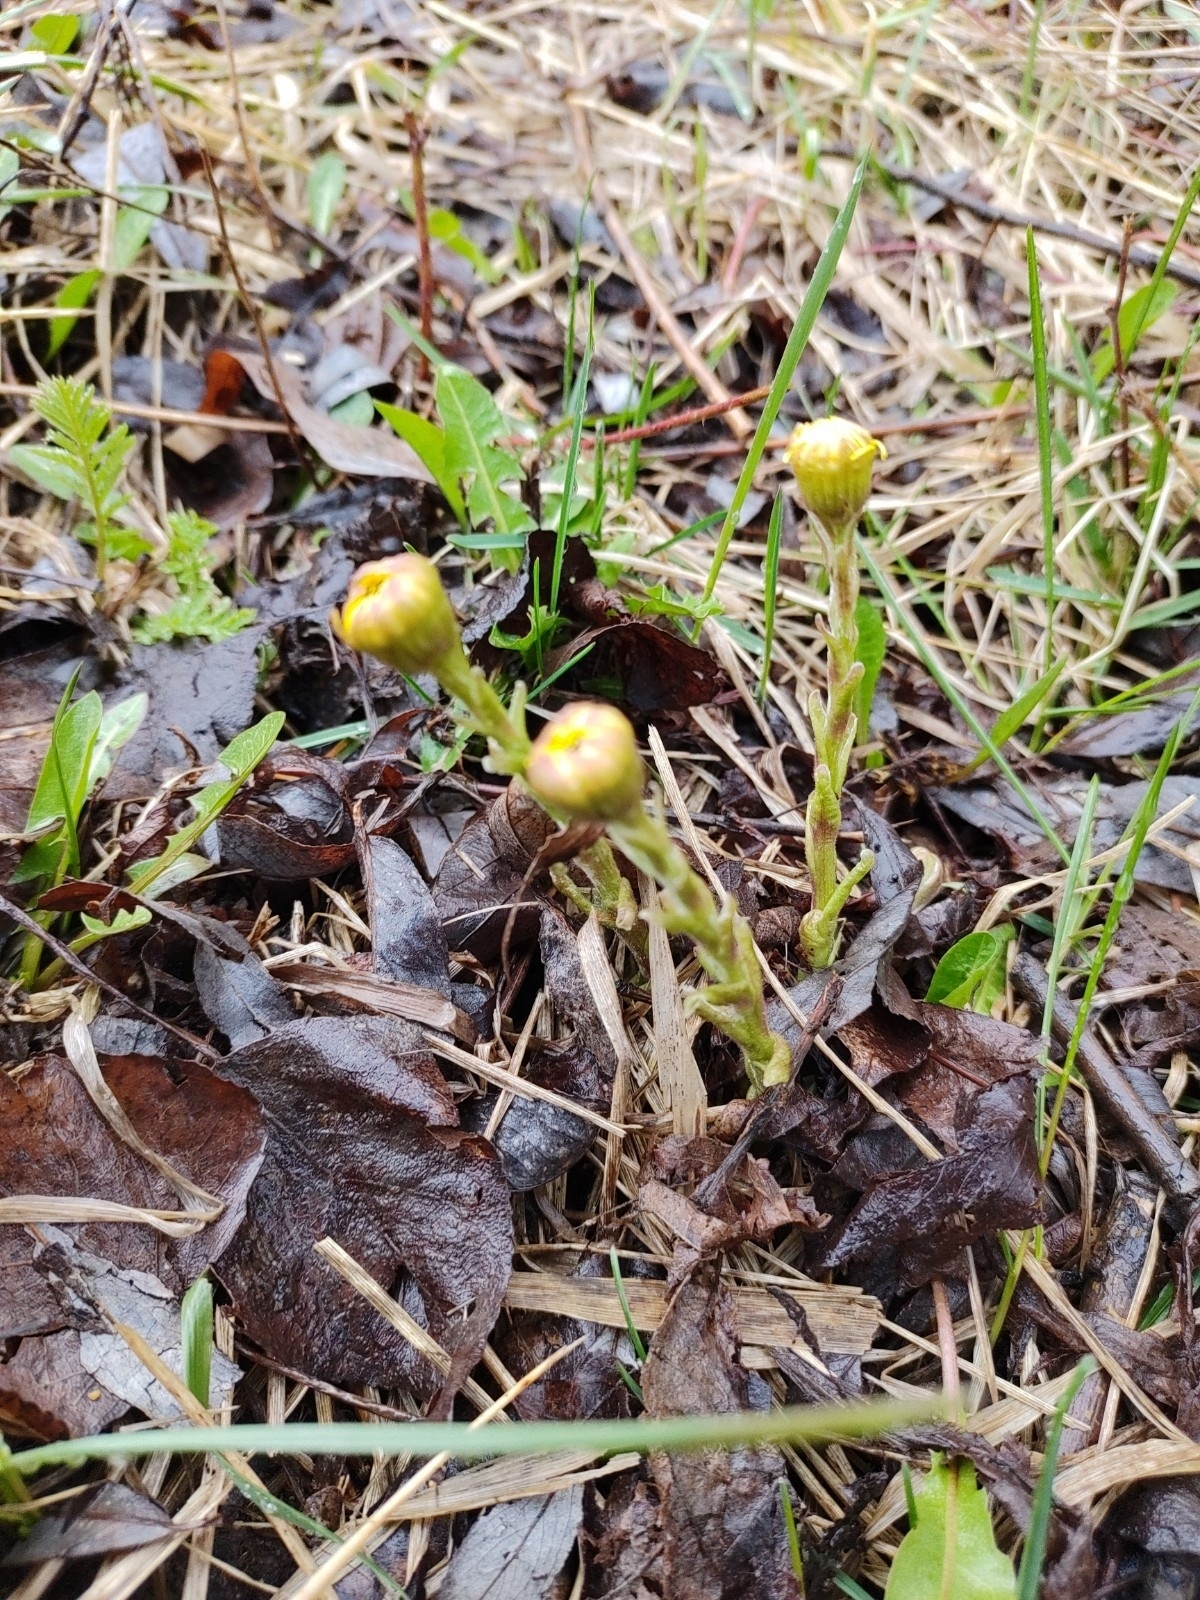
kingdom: Plantae
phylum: Tracheophyta
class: Magnoliopsida
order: Asterales
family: Asteraceae
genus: Tussilago
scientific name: Tussilago farfara
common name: Coltsfoot
